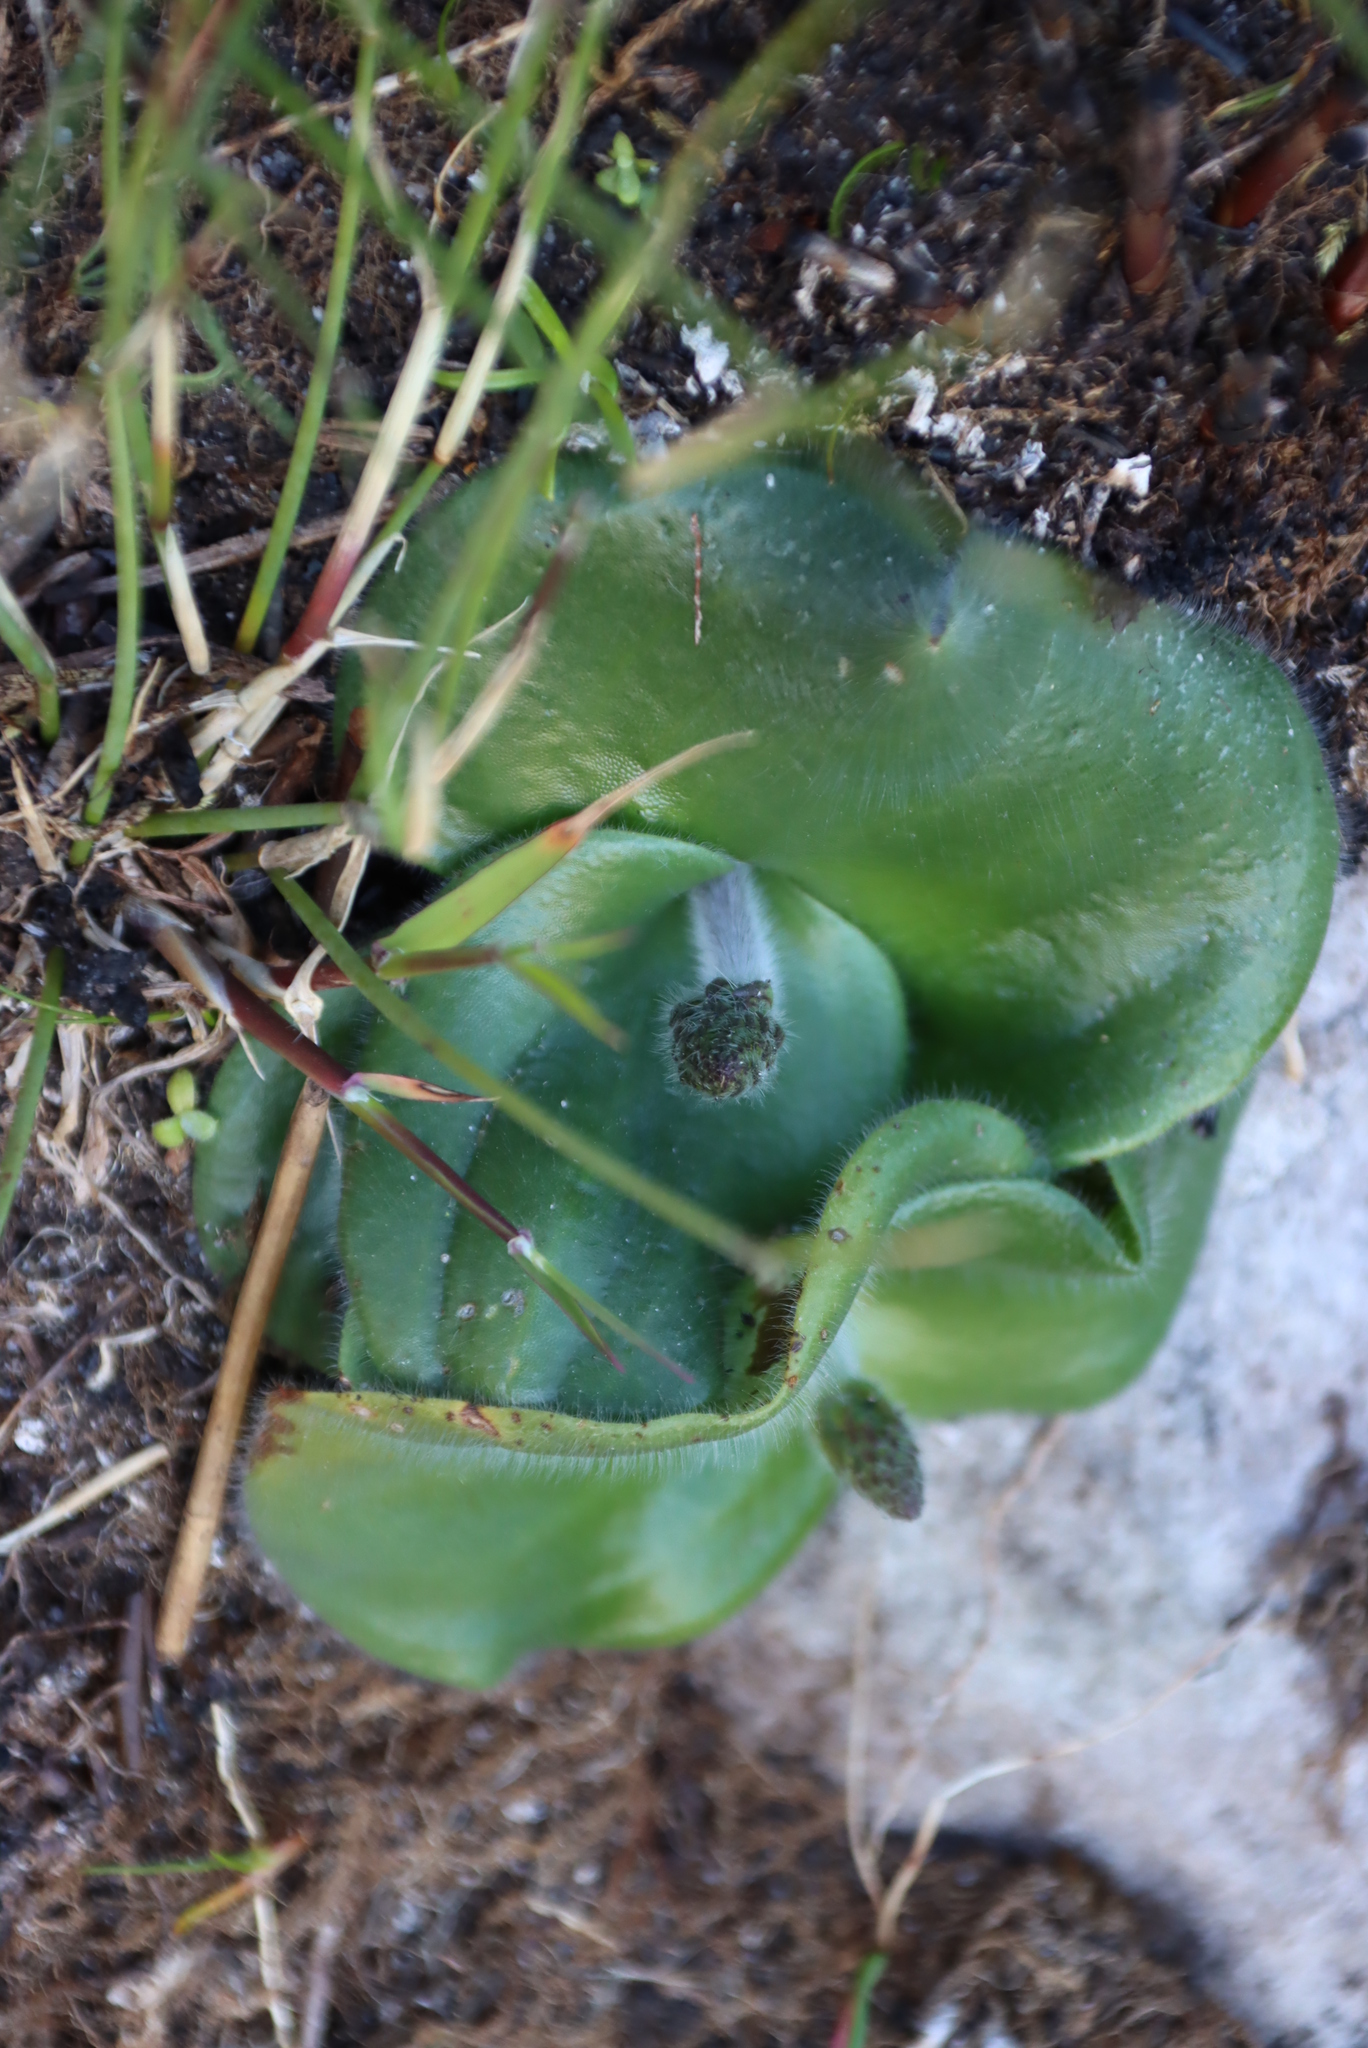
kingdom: Plantae
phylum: Tracheophyta
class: Liliopsida
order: Asparagales
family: Orchidaceae
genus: Holothrix
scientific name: Holothrix condensata
